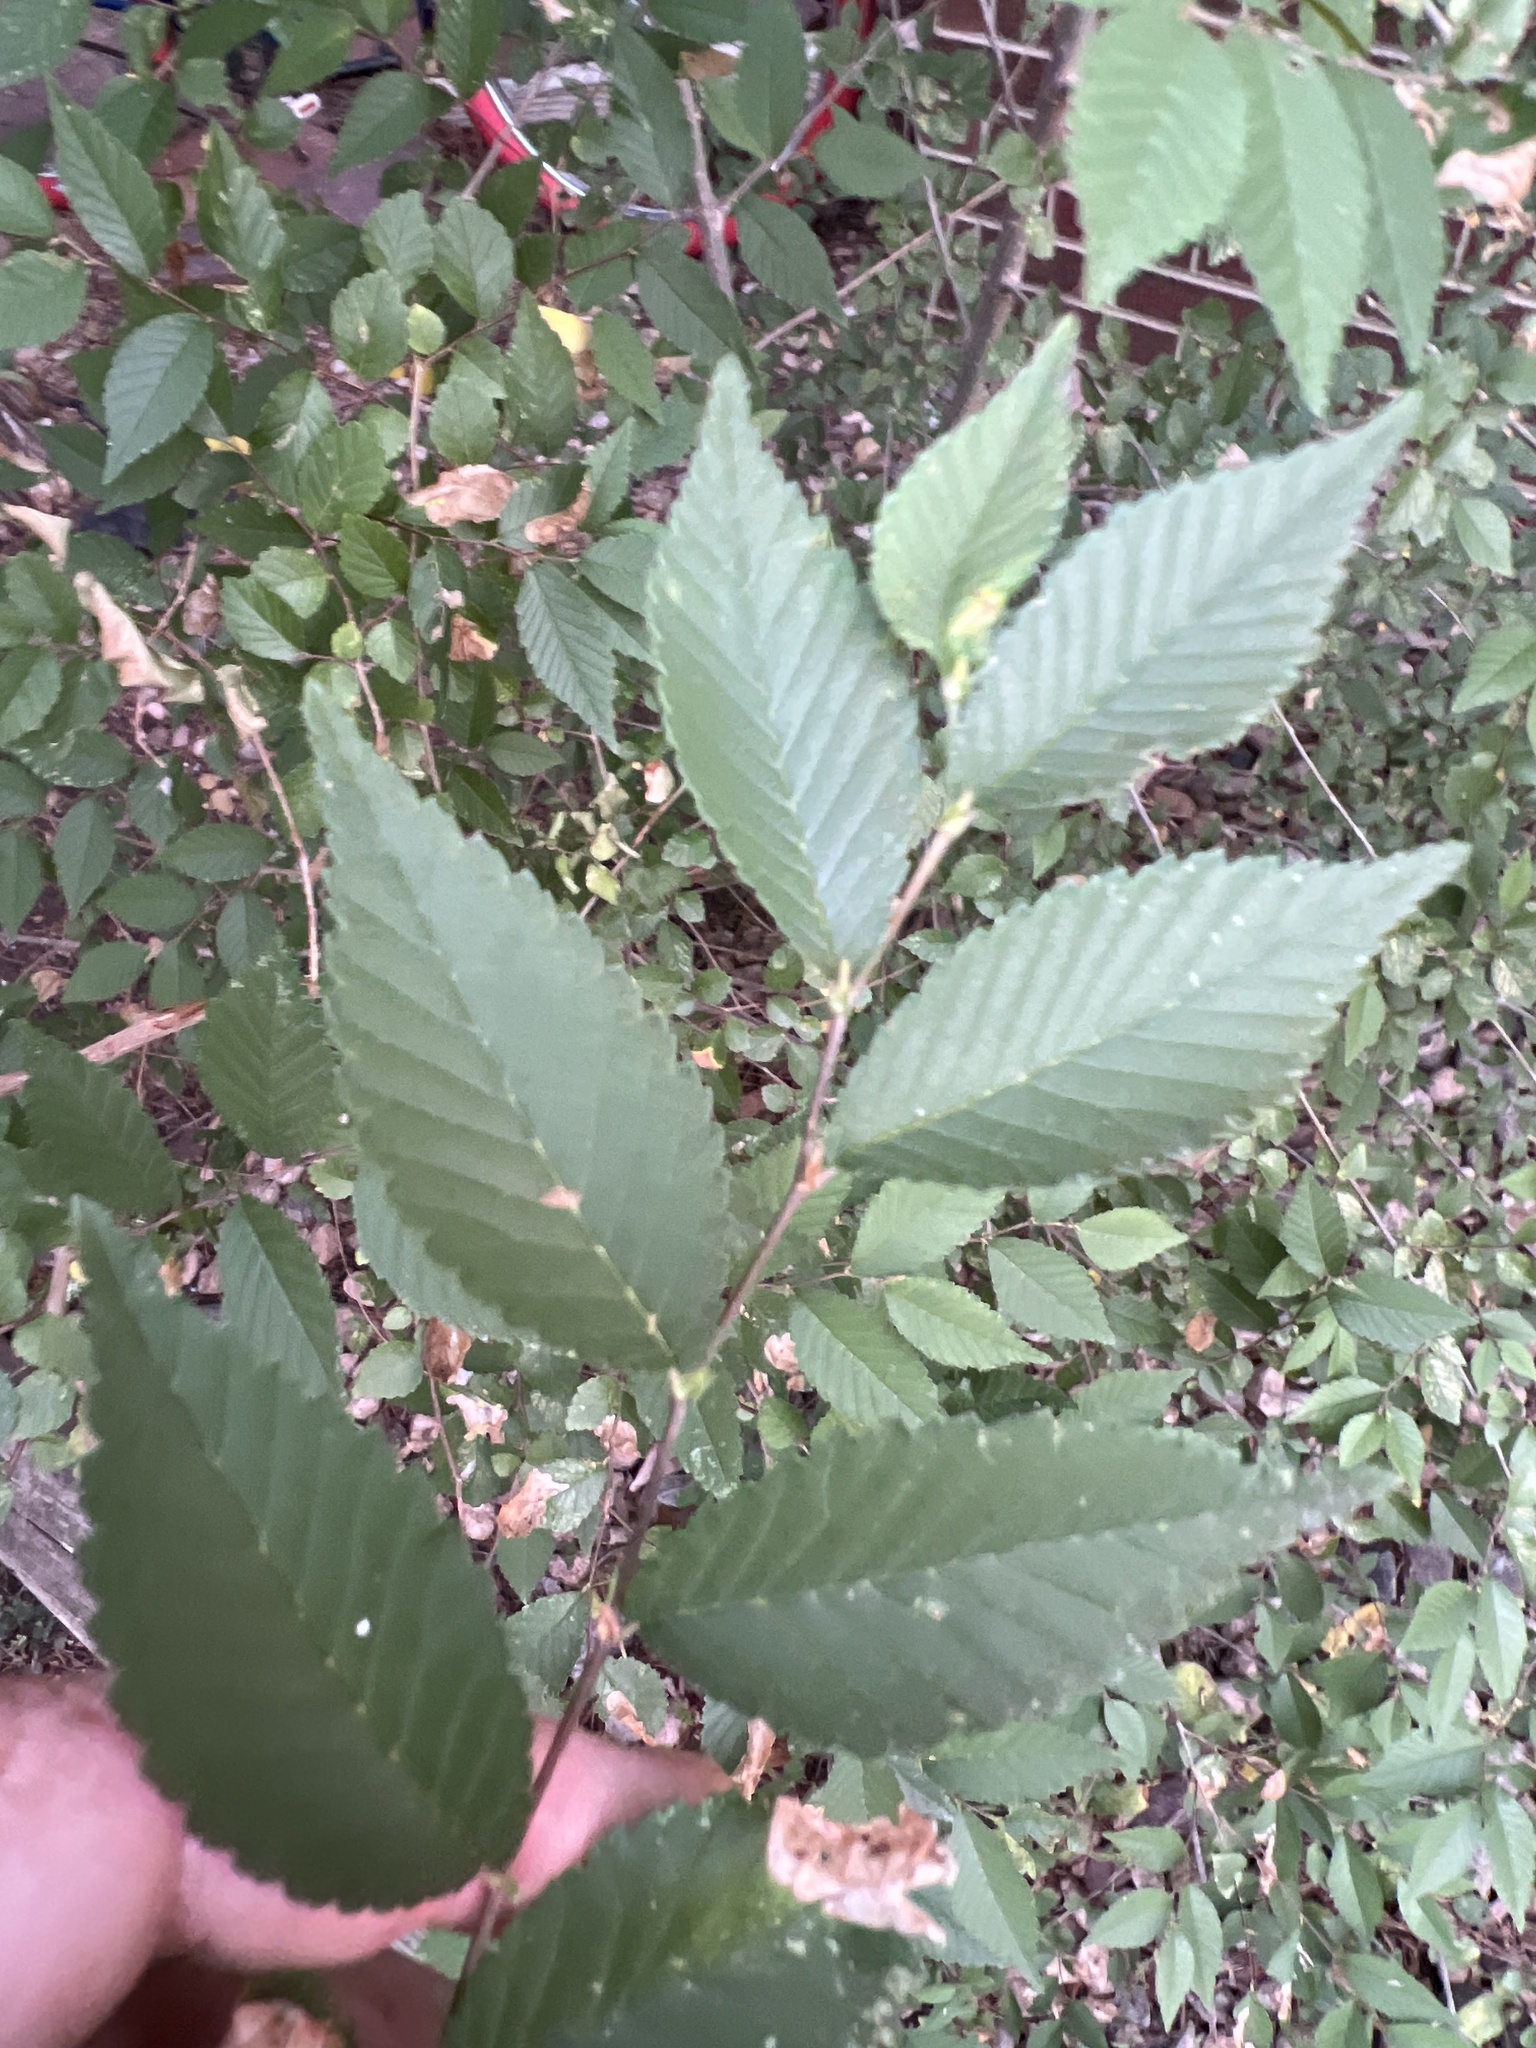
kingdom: Plantae
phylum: Tracheophyta
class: Magnoliopsida
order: Rosales
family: Ulmaceae
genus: Ulmus
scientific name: Ulmus pumila
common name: Siberian elm
